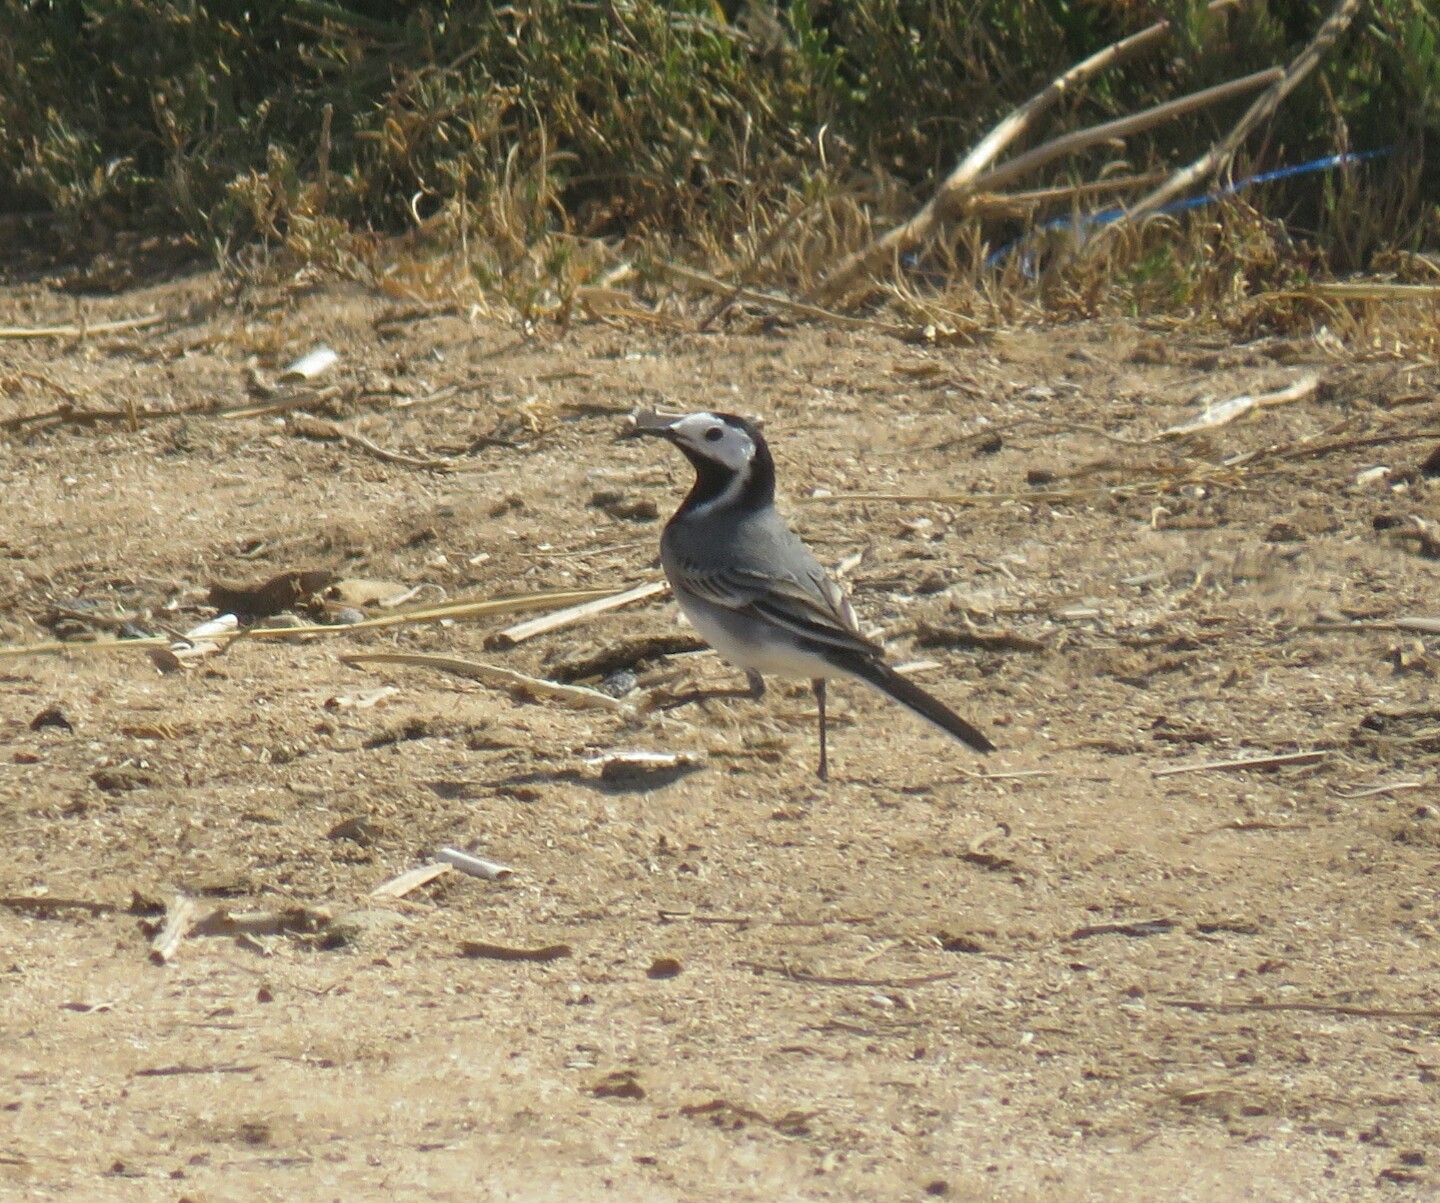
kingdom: Animalia
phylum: Chordata
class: Aves
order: Passeriformes
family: Motacillidae
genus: Motacilla
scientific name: Motacilla alba
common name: White wagtail
